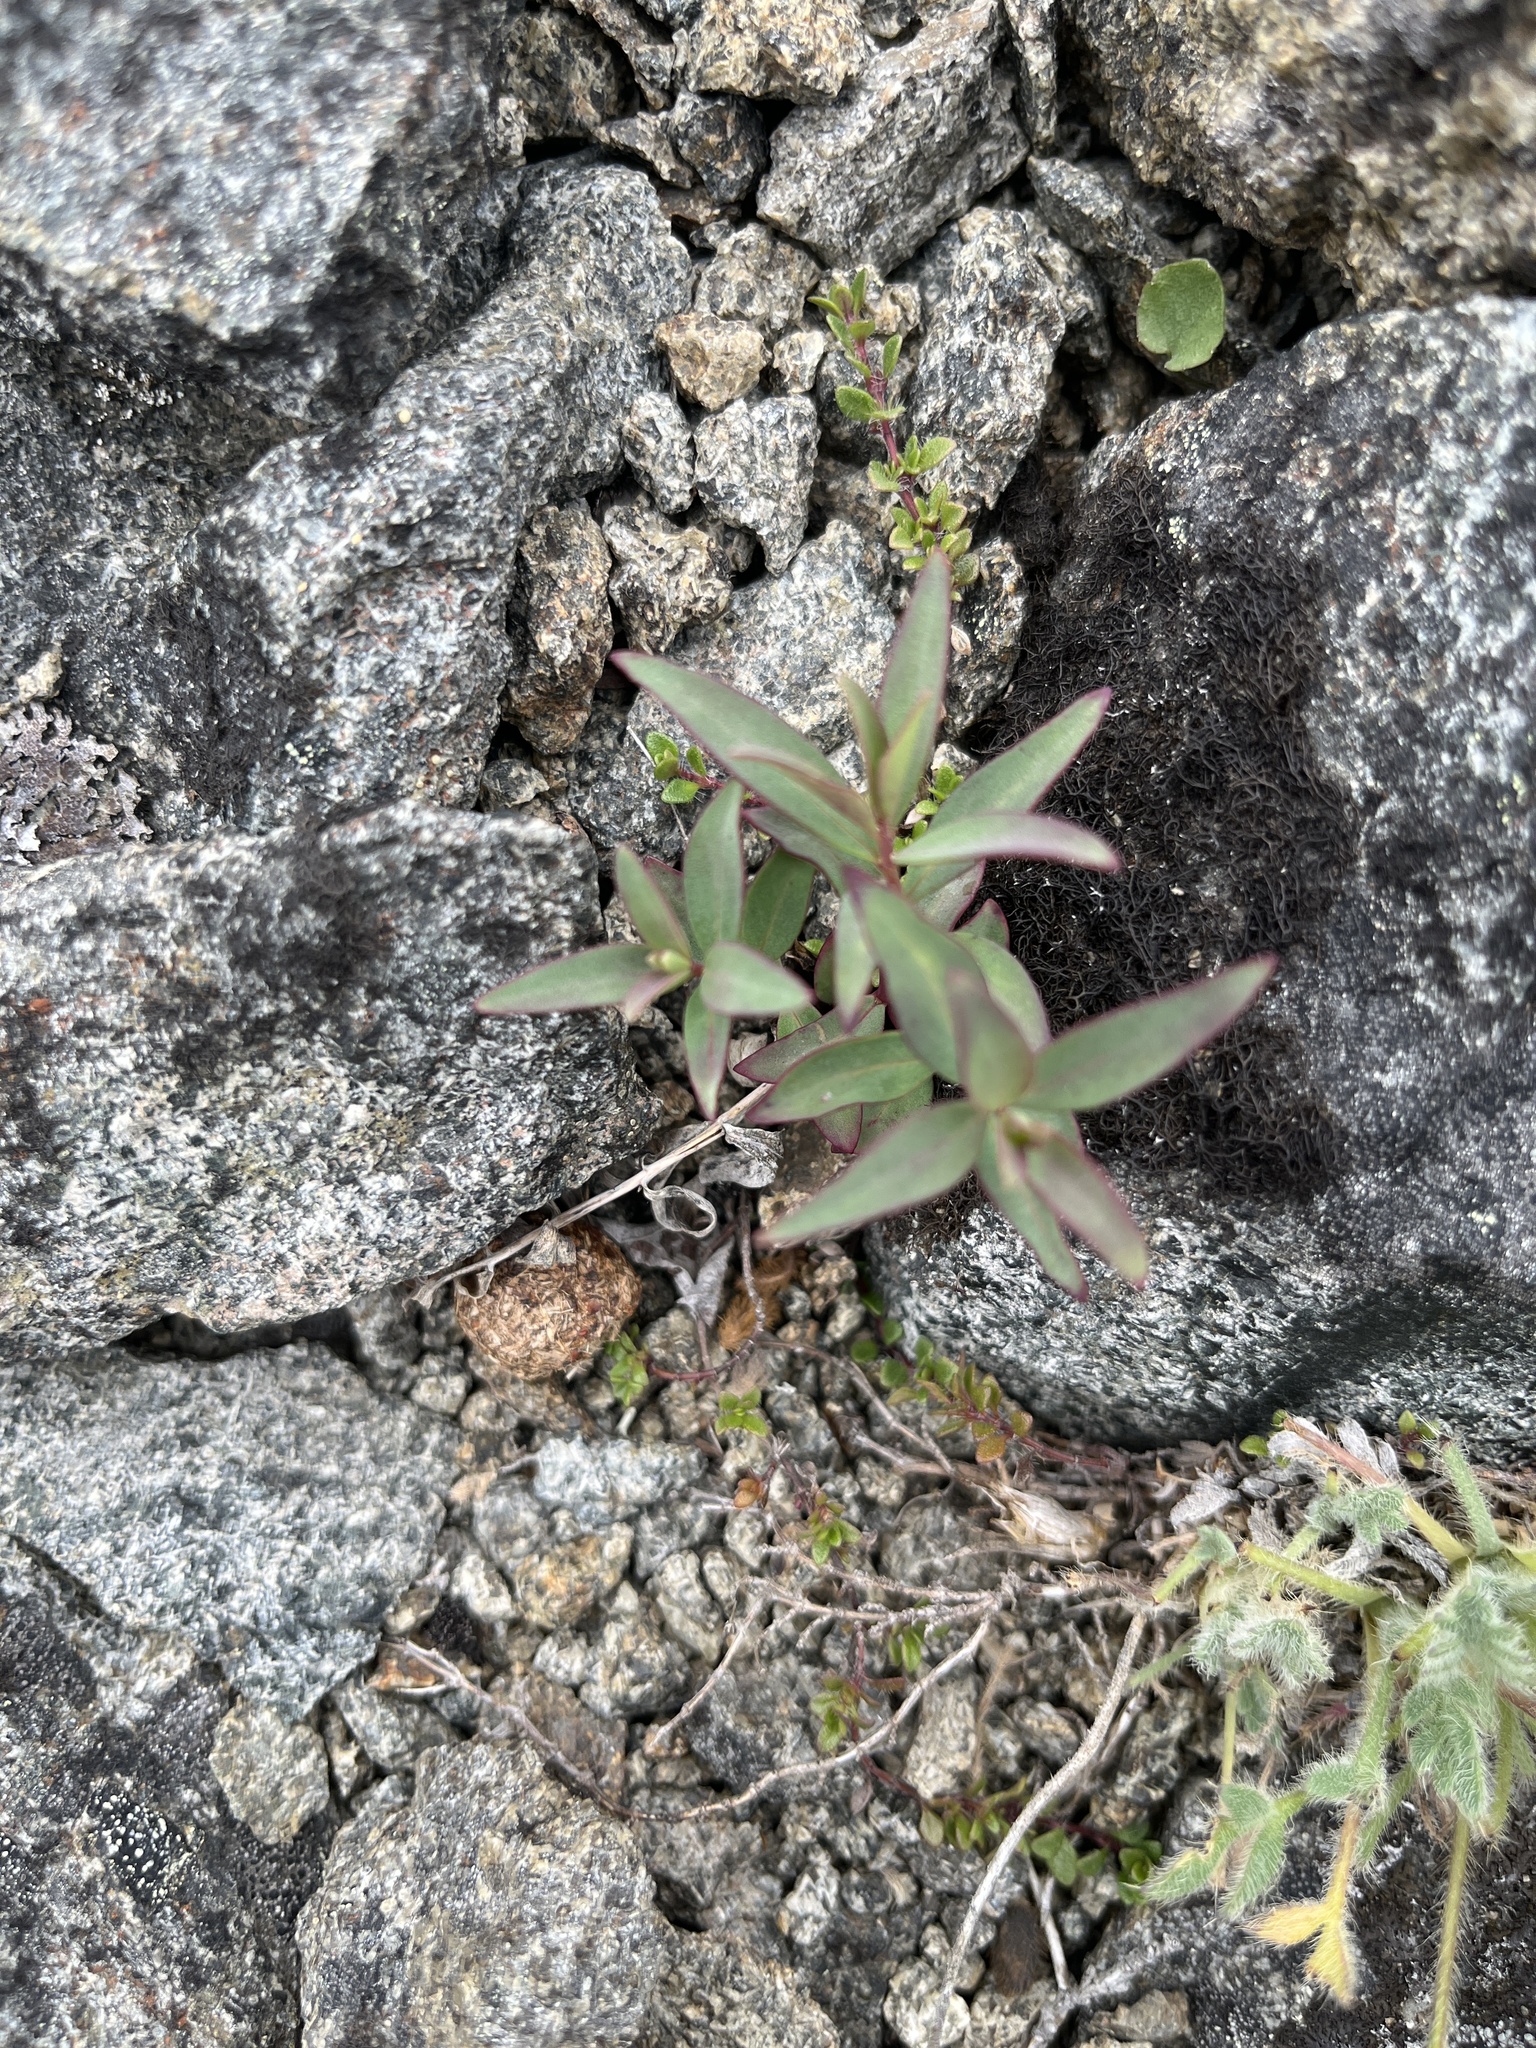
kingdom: Plantae
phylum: Tracheophyta
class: Magnoliopsida
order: Myrtales
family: Onagraceae
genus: Chamaenerion
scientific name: Chamaenerion latifolium
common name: Dwarf fireweed
